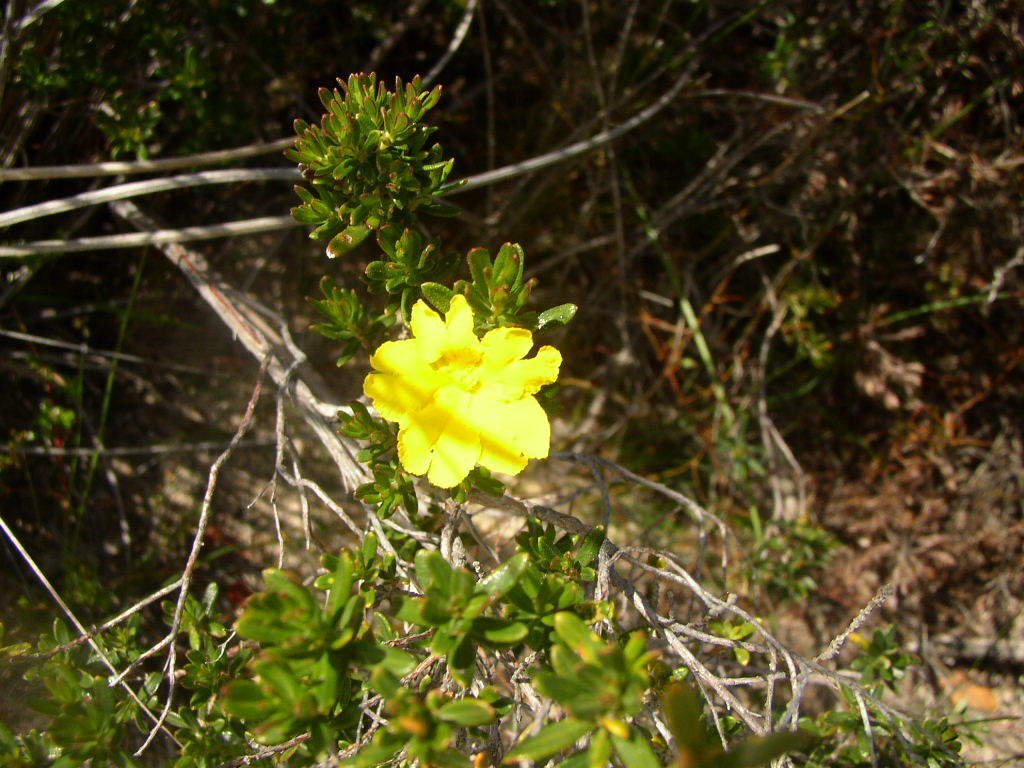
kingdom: Plantae
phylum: Tracheophyta
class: Magnoliopsida
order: Dilleniales
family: Dilleniaceae
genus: Hibbertia
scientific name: Hibbertia hypericoides
